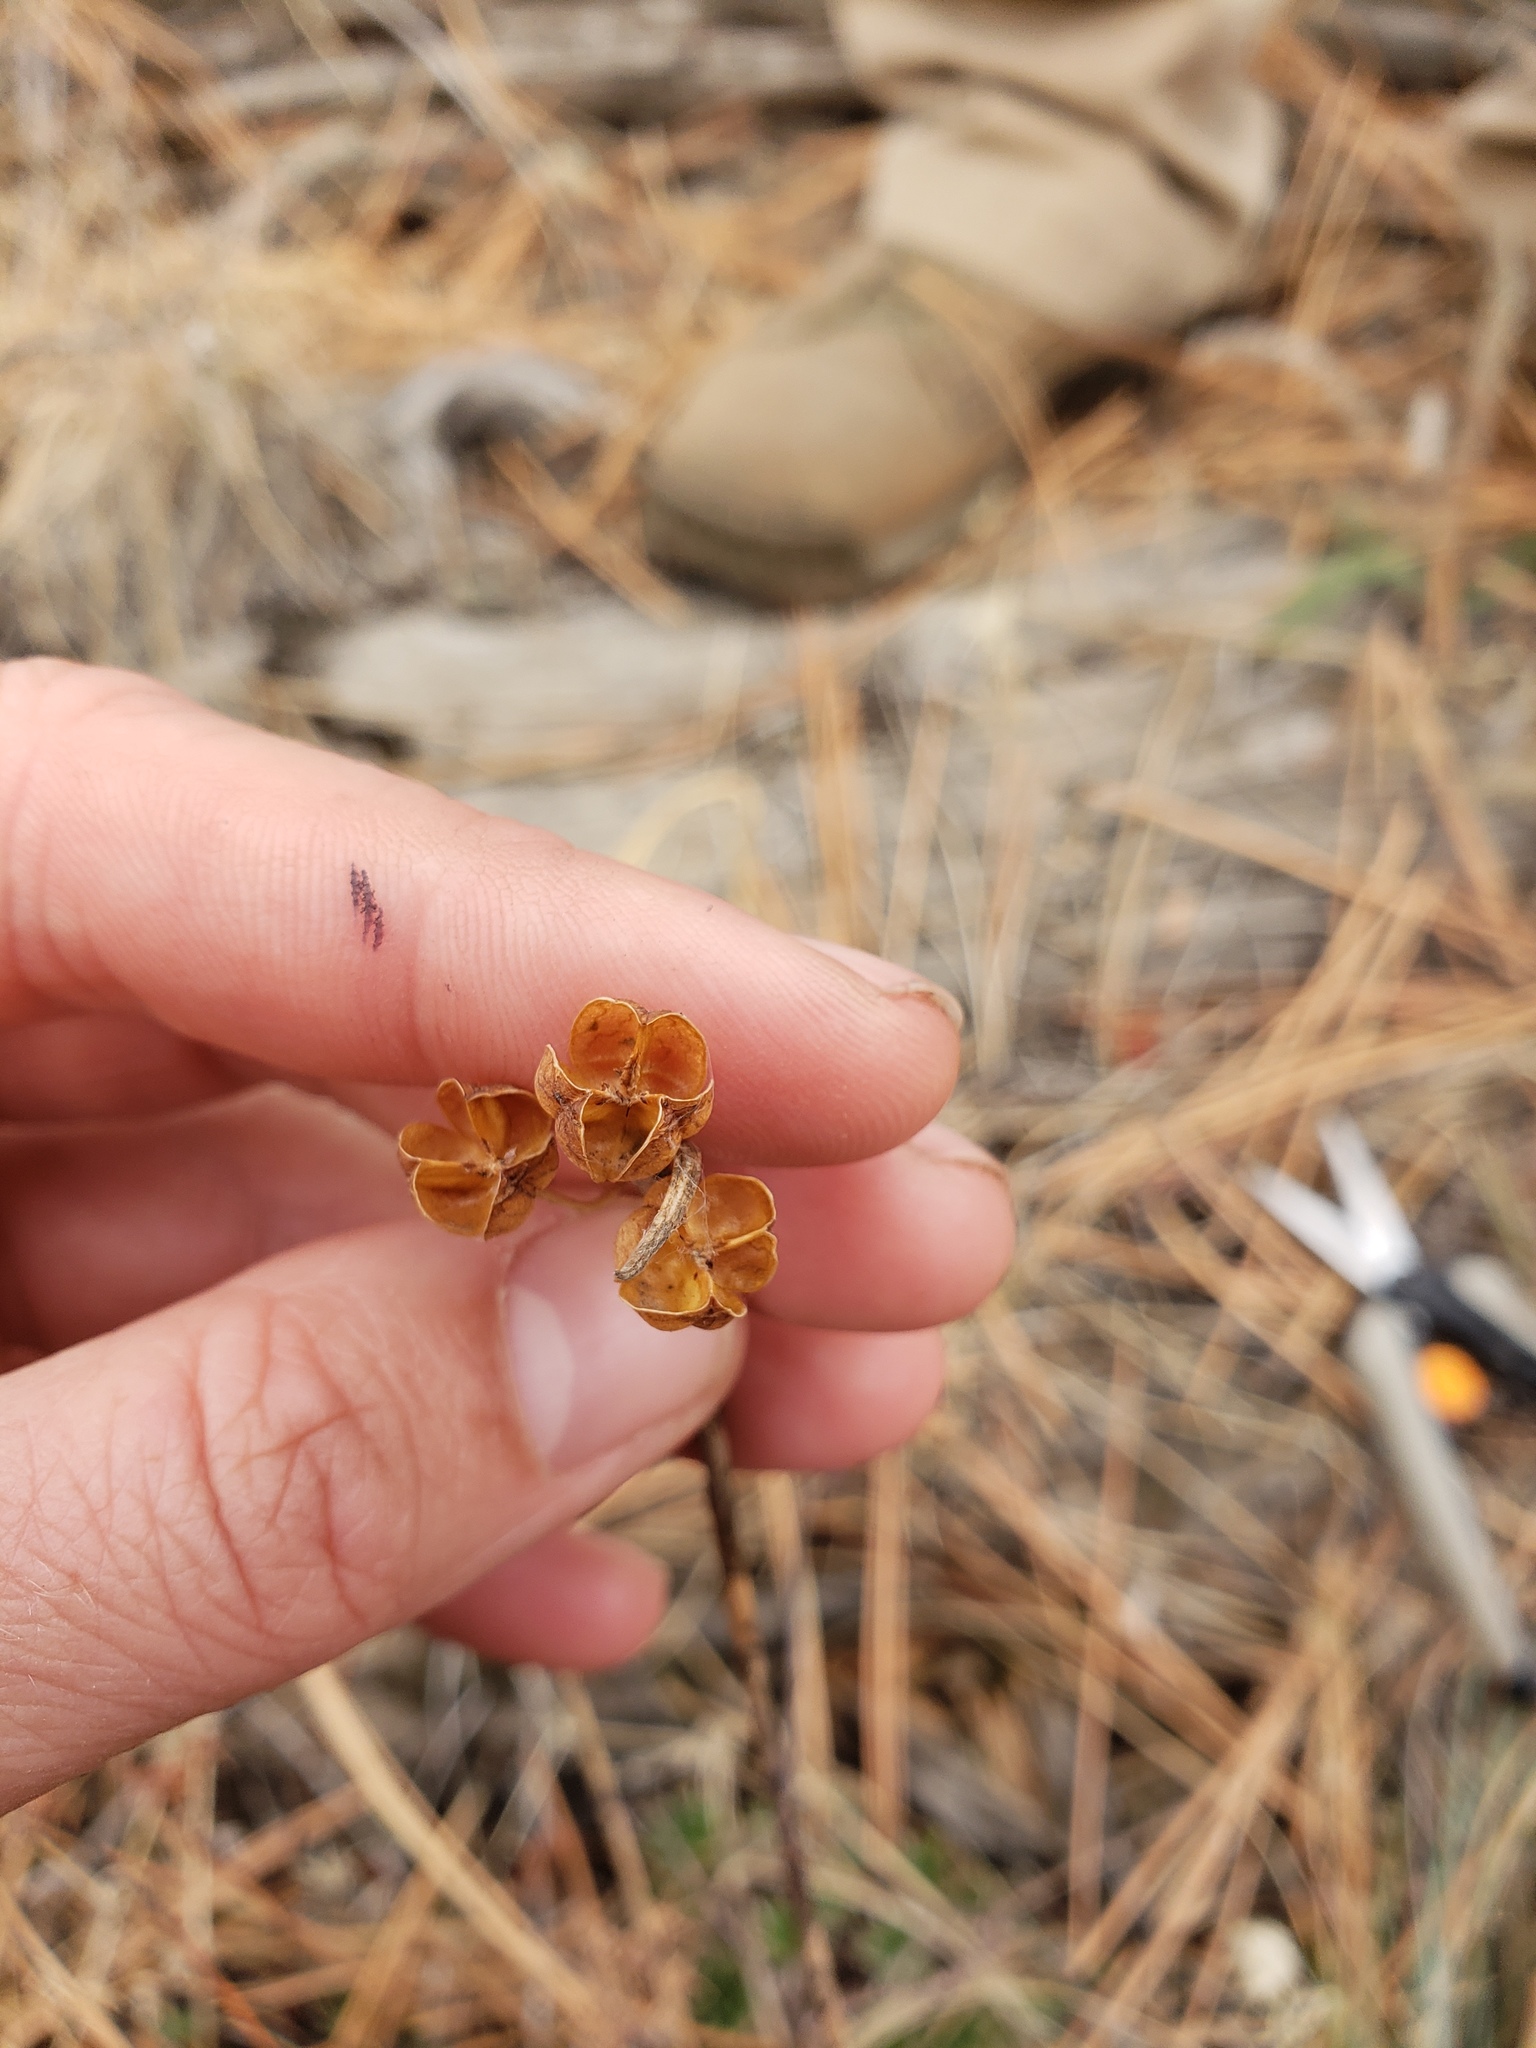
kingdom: Plantae
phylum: Tracheophyta
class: Liliopsida
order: Asparagales
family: Iridaceae
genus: Olsynium
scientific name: Olsynium douglasii
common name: Douglas' grasswidow
